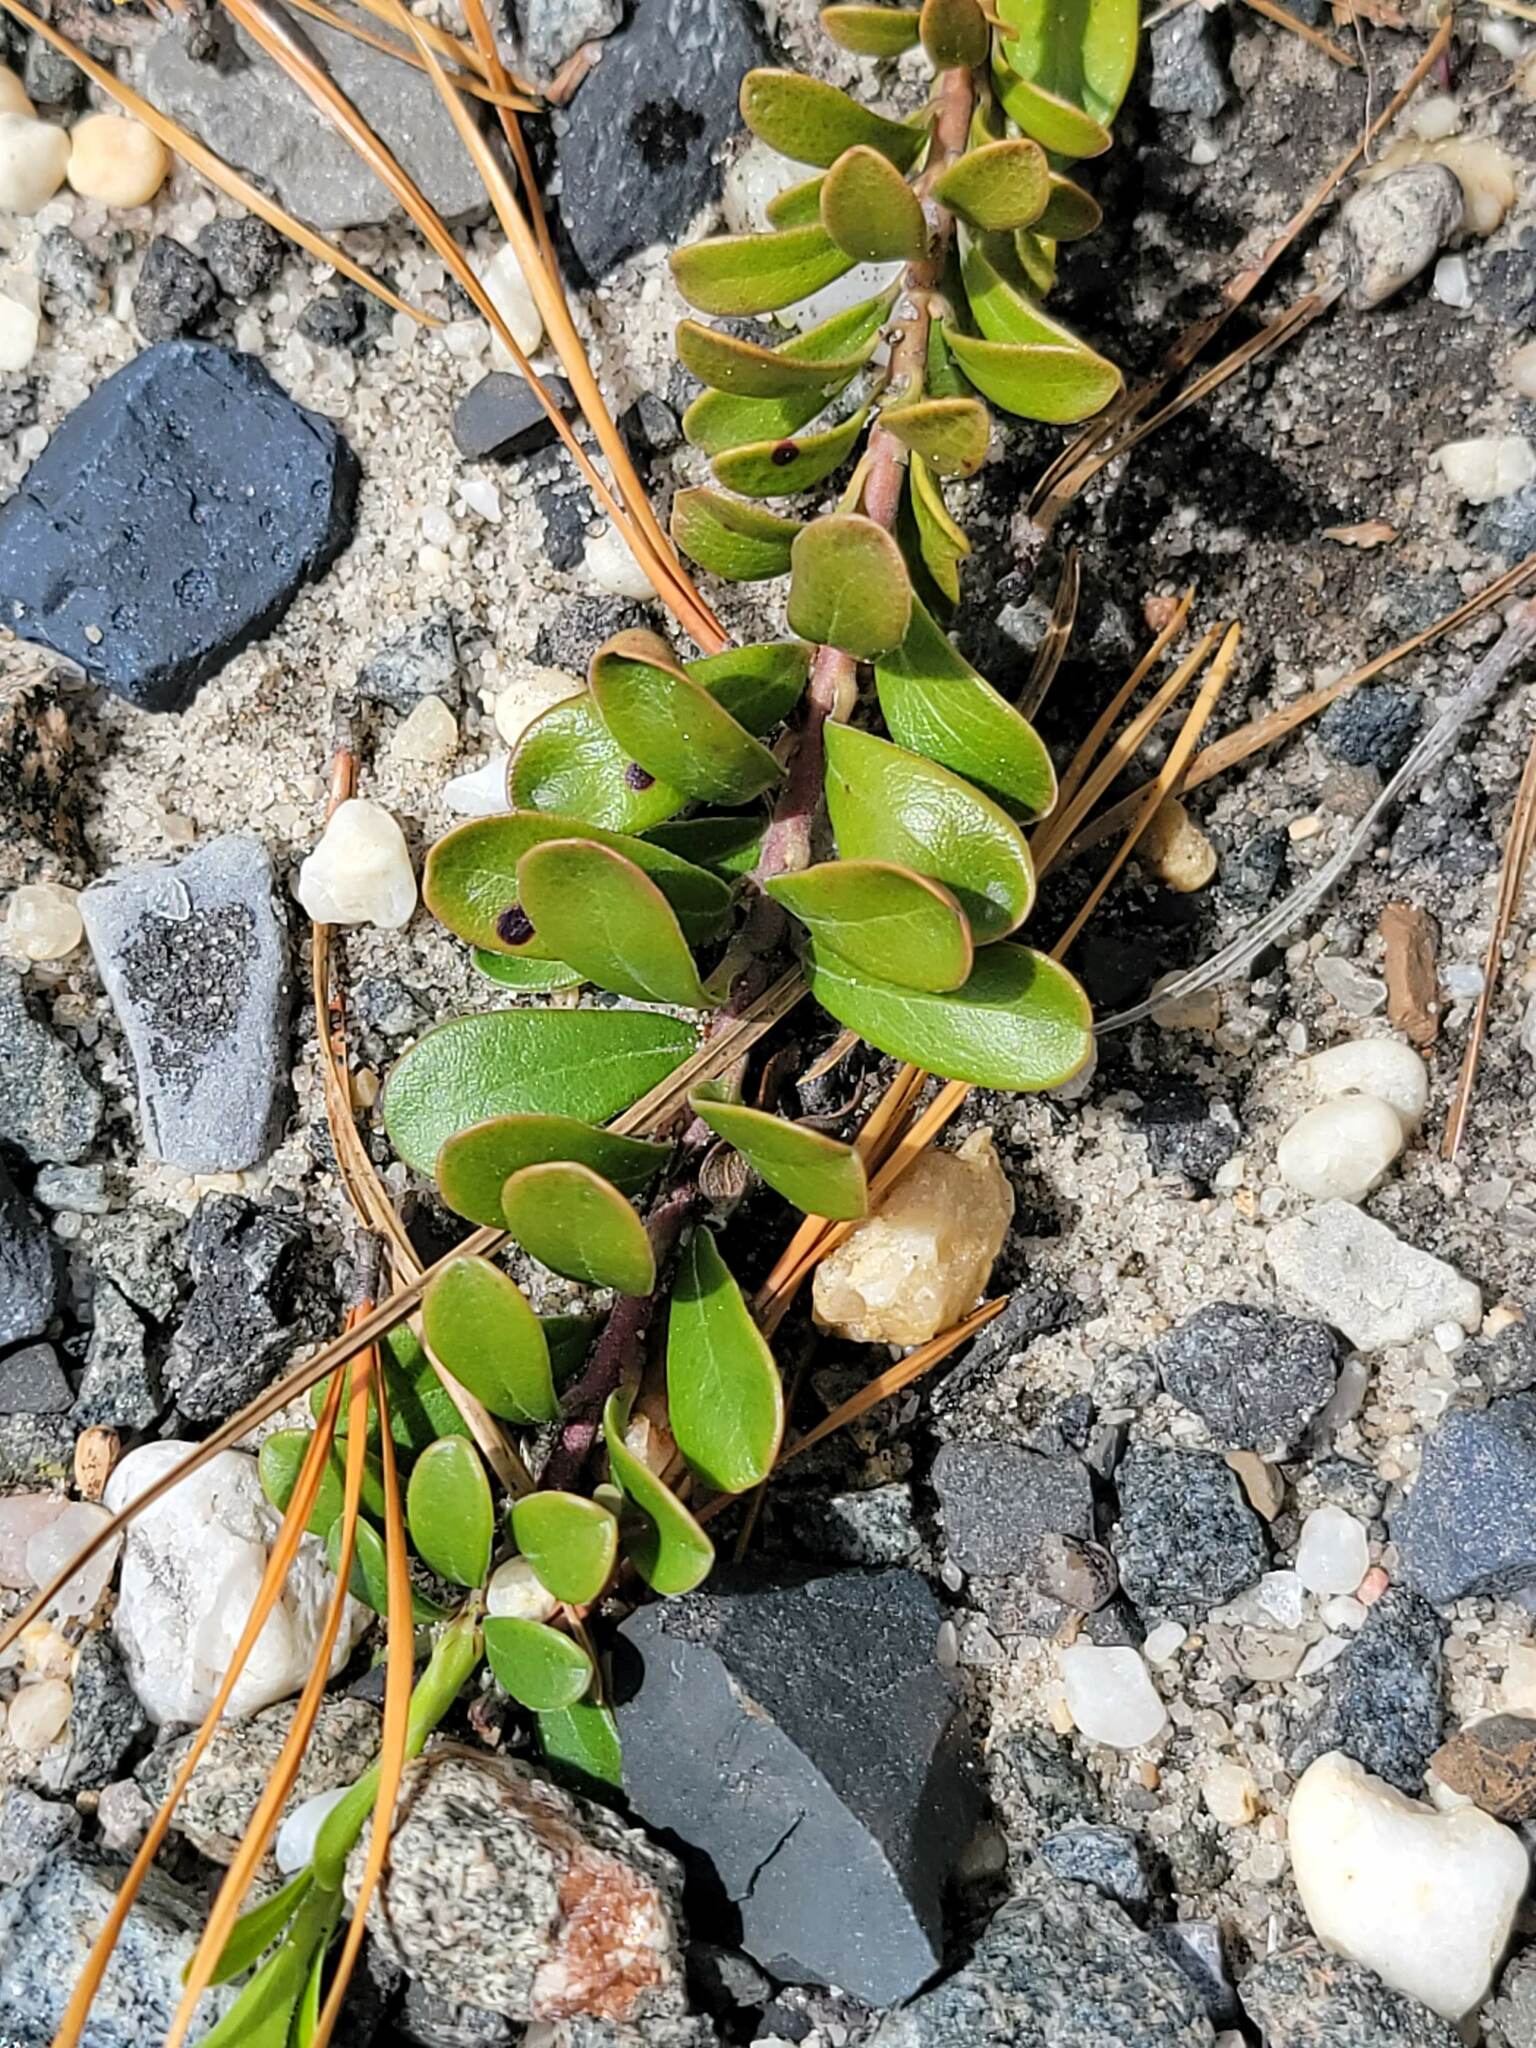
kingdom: Plantae
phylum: Tracheophyta
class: Magnoliopsida
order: Ericales
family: Ericaceae
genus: Arctostaphylos
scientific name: Arctostaphylos uva-ursi
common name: Bearberry
